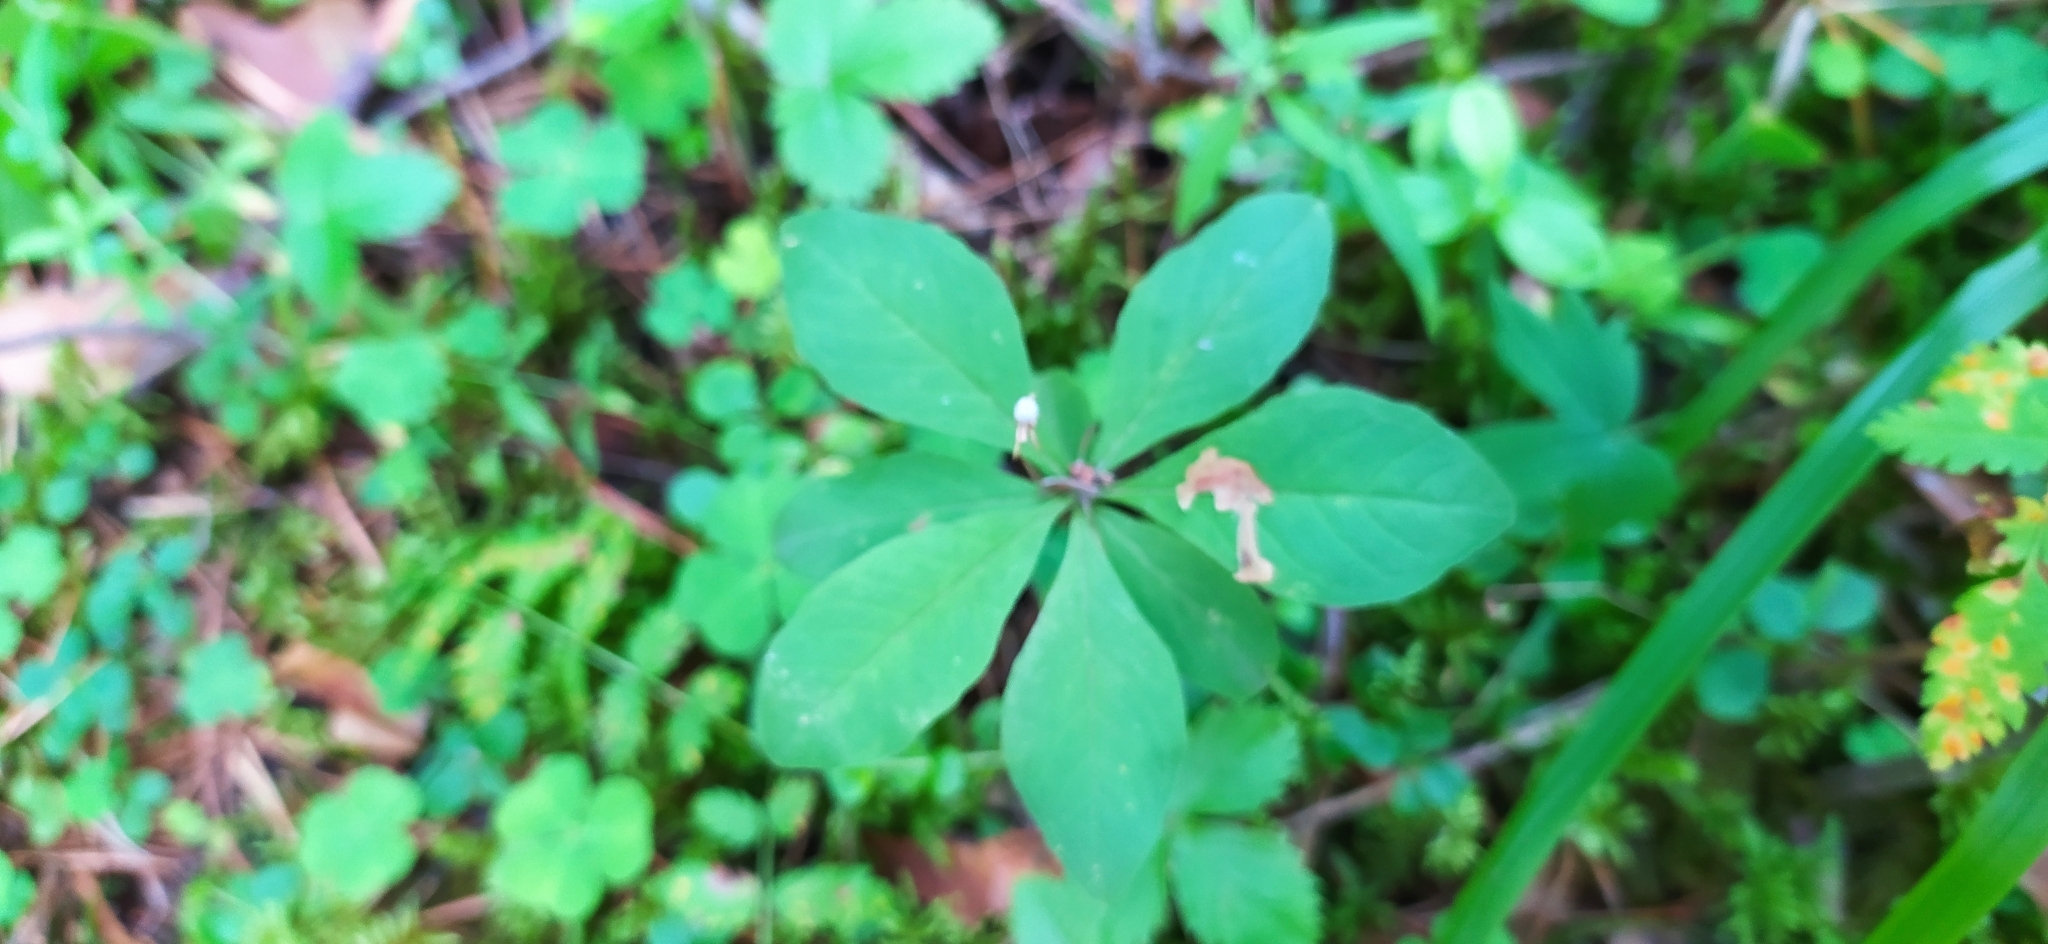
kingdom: Plantae
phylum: Tracheophyta
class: Magnoliopsida
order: Ericales
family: Primulaceae
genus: Lysimachia
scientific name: Lysimachia europaea
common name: Arctic starflower
